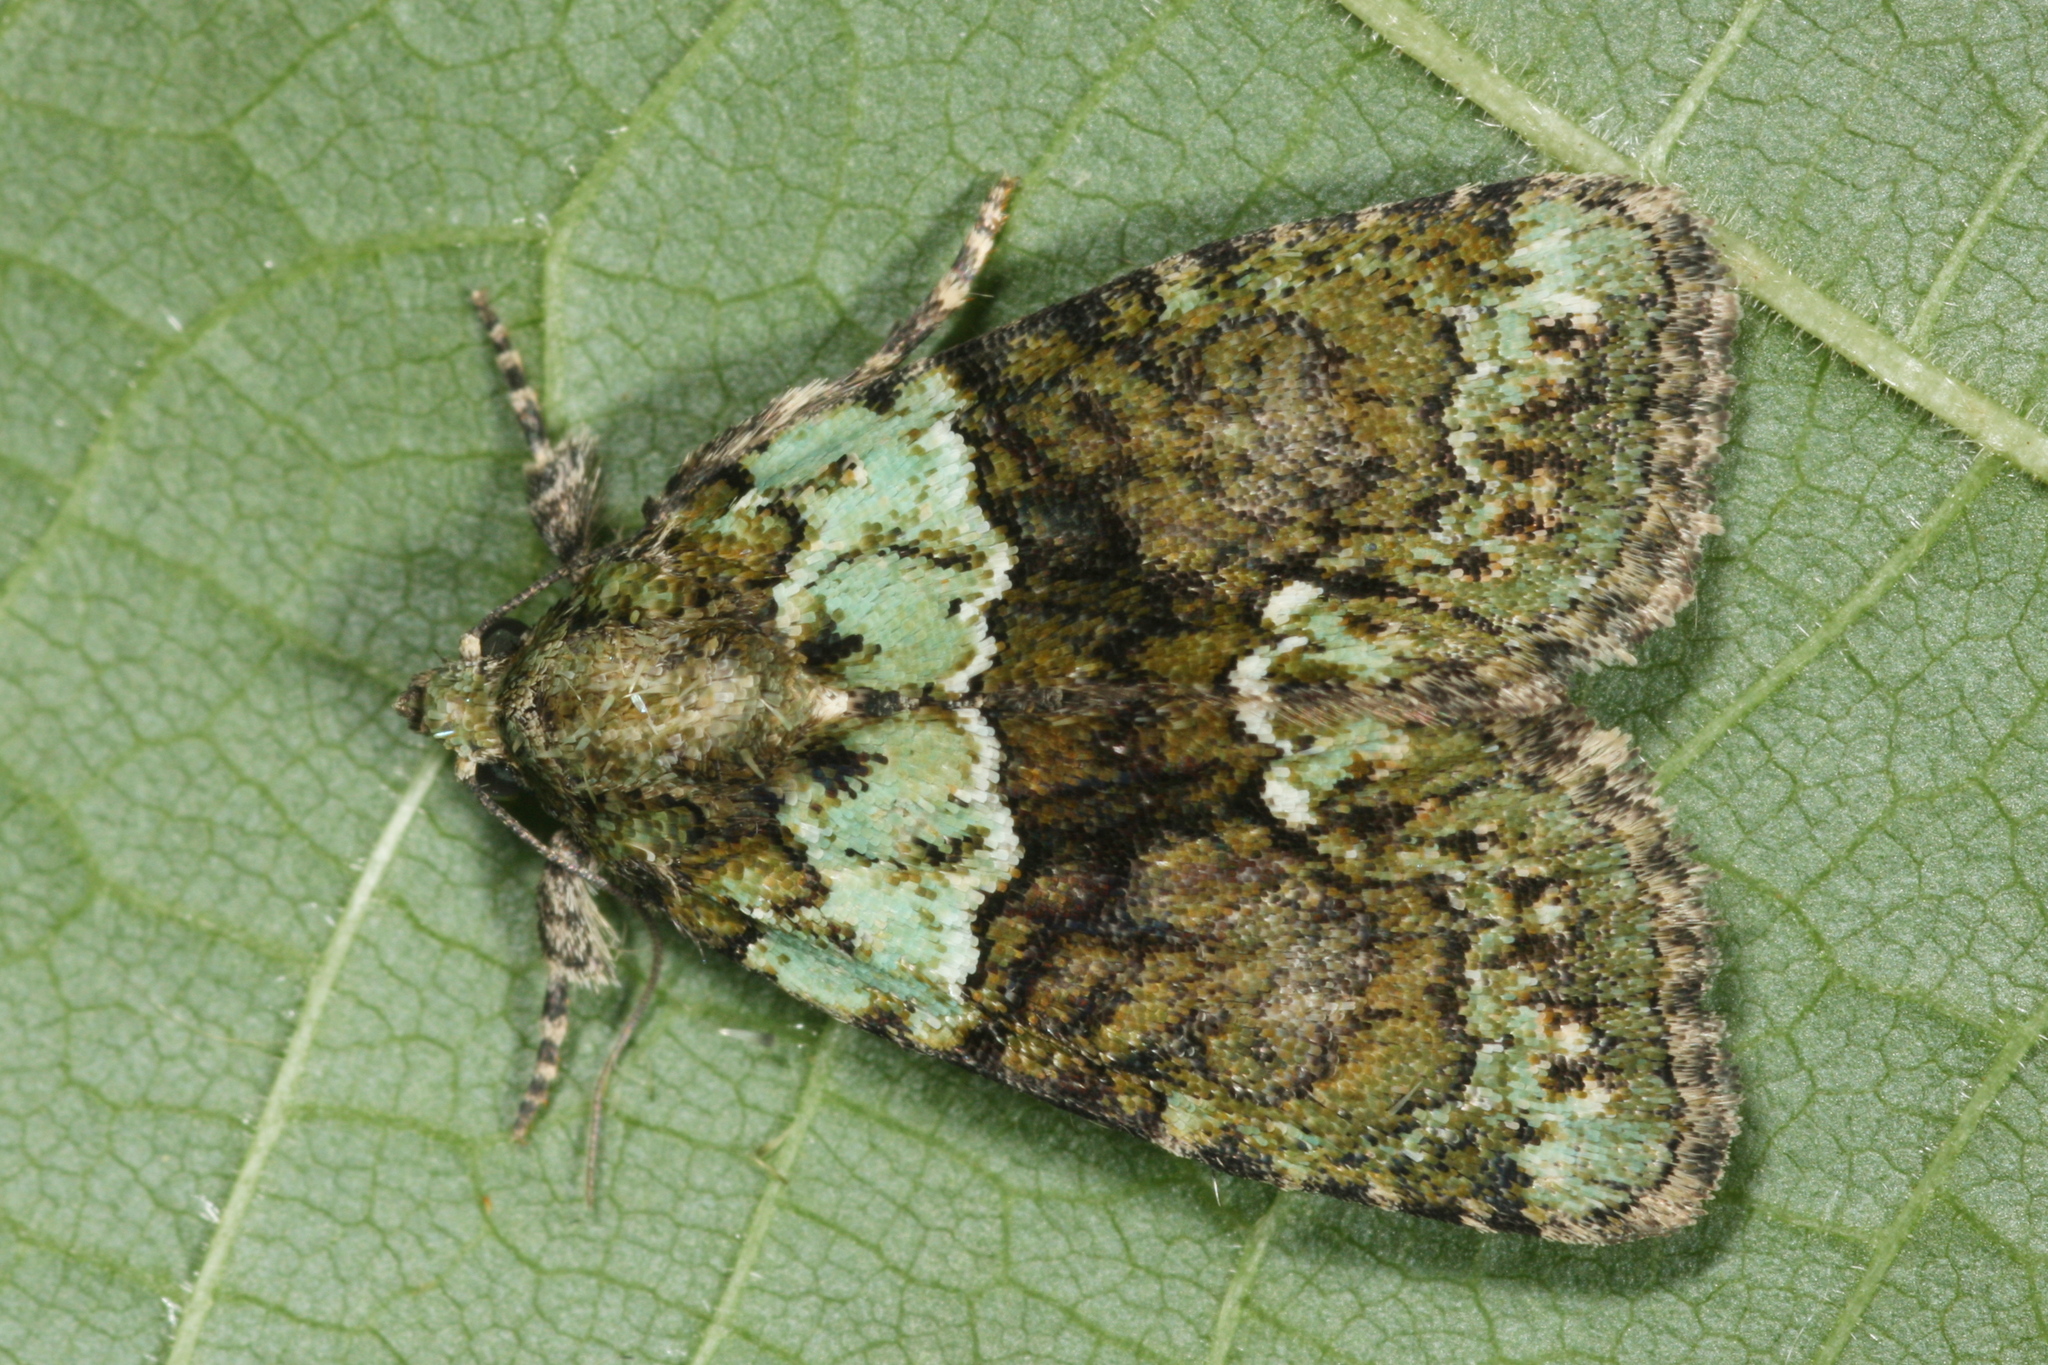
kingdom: Animalia
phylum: Arthropoda
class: Insecta
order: Lepidoptera
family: Noctuidae
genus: Cryphia
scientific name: Cryphia algae
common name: Tree-lichen beauty
